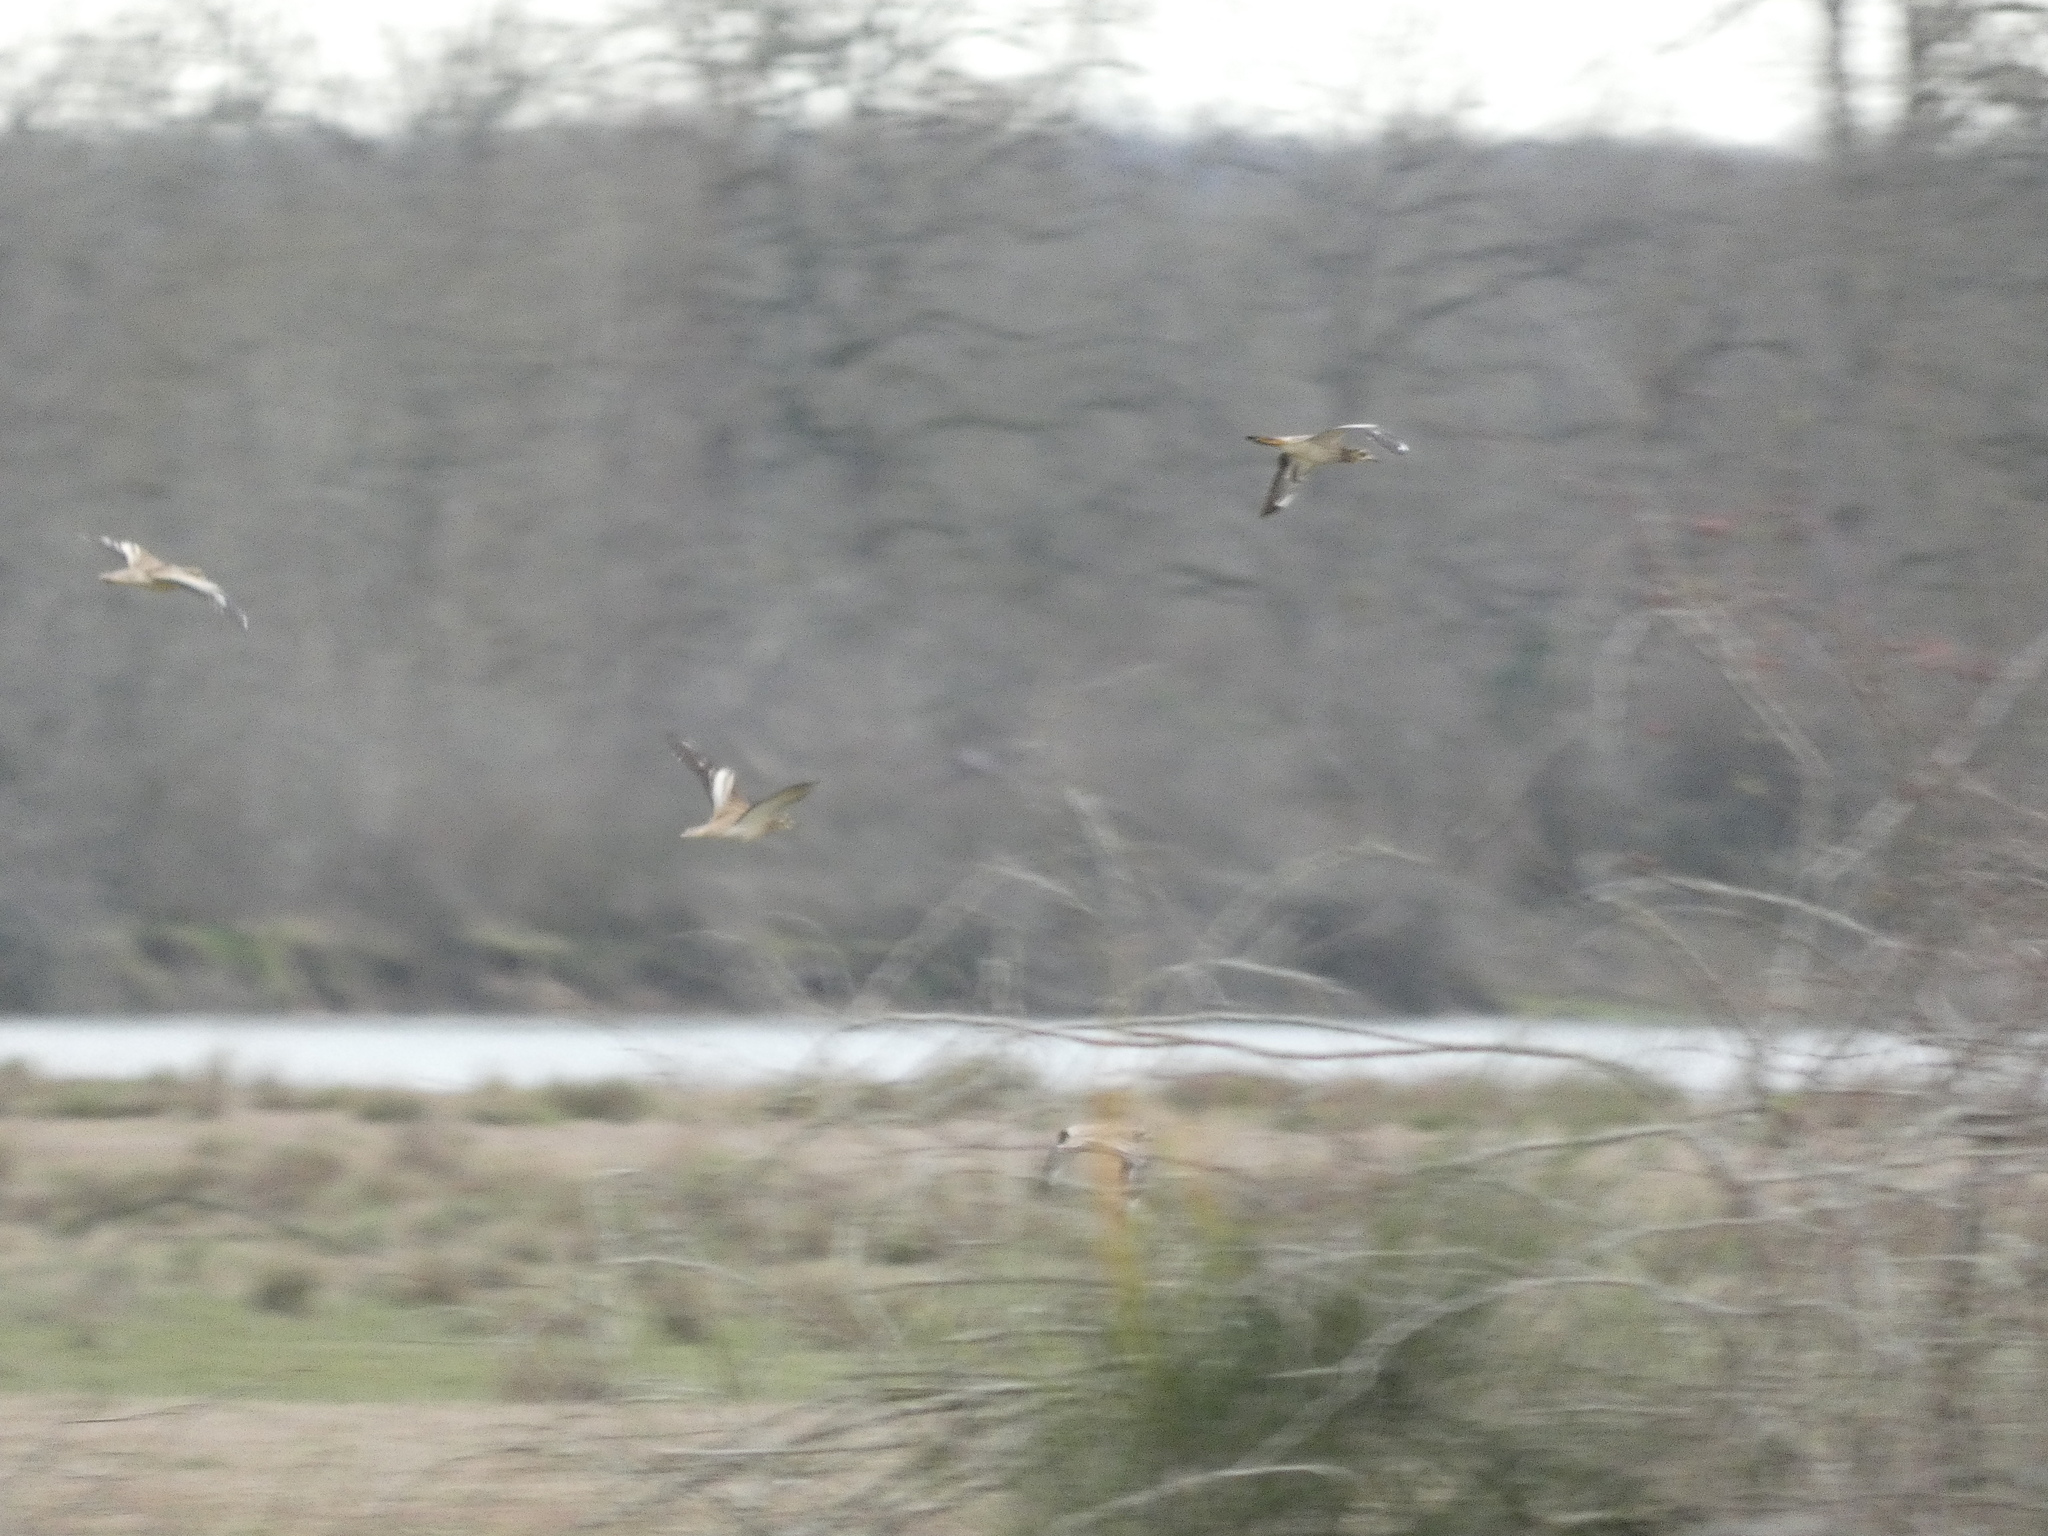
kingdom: Animalia
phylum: Chordata
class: Aves
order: Charadriiformes
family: Burhinidae
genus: Burhinus
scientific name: Burhinus oedicnemus
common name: Eurasian stone-curlew
